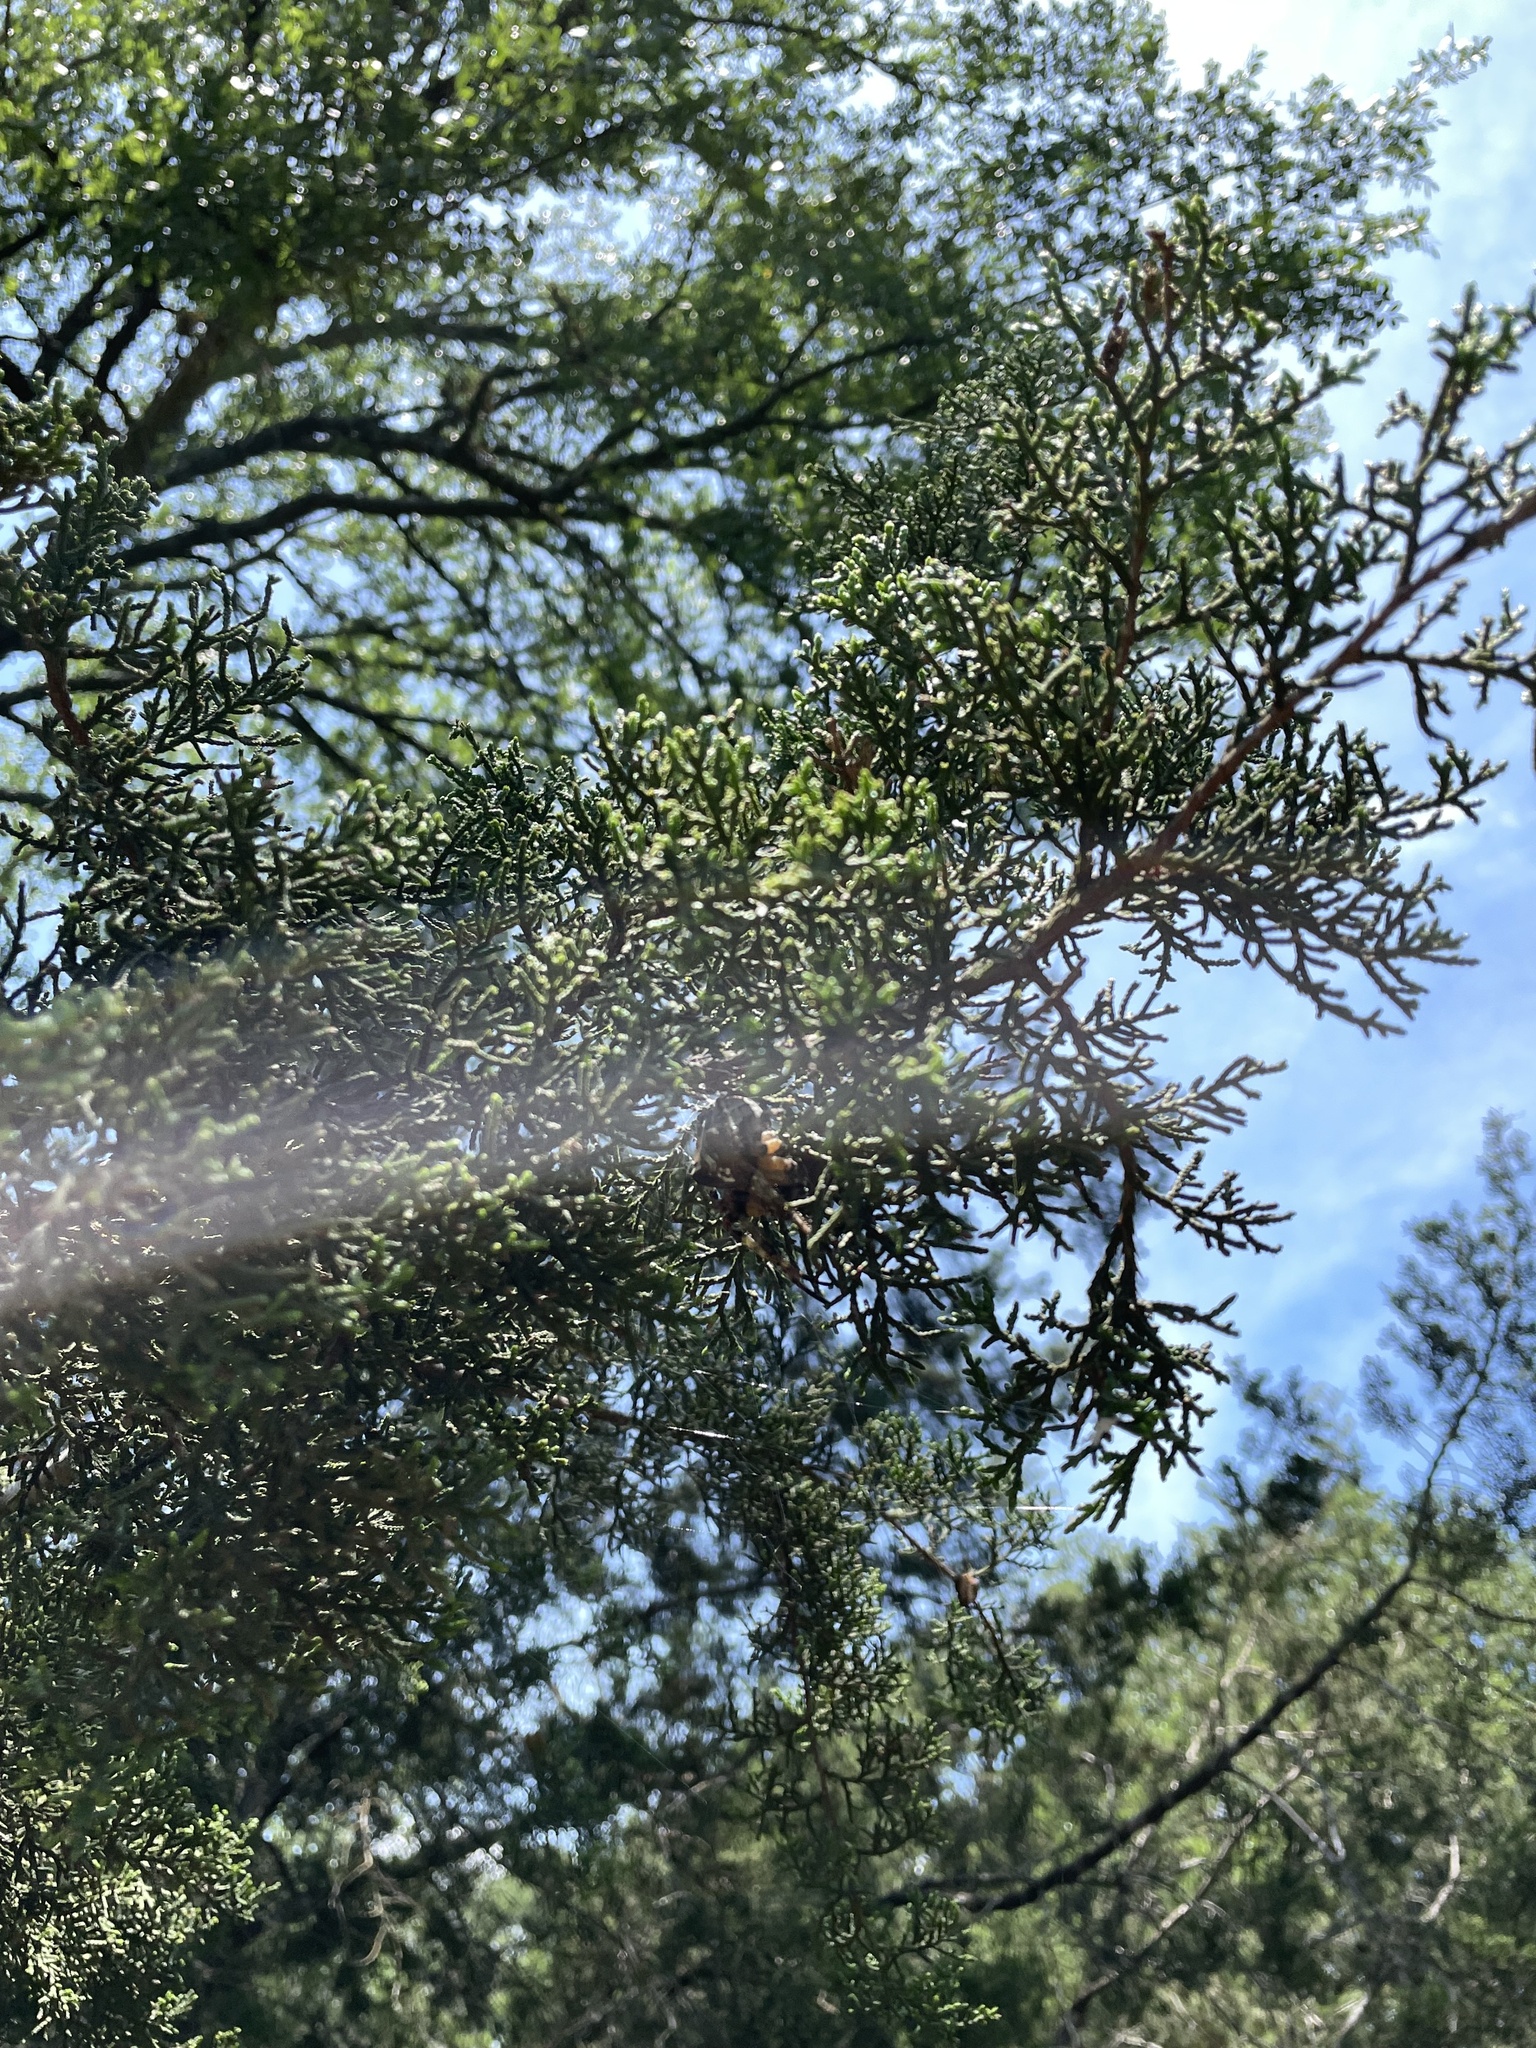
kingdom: Animalia
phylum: Arthropoda
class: Arachnida
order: Araneae
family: Araneidae
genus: Araneus
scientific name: Araneus bicentenarius
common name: Giant lichen orbweaver
